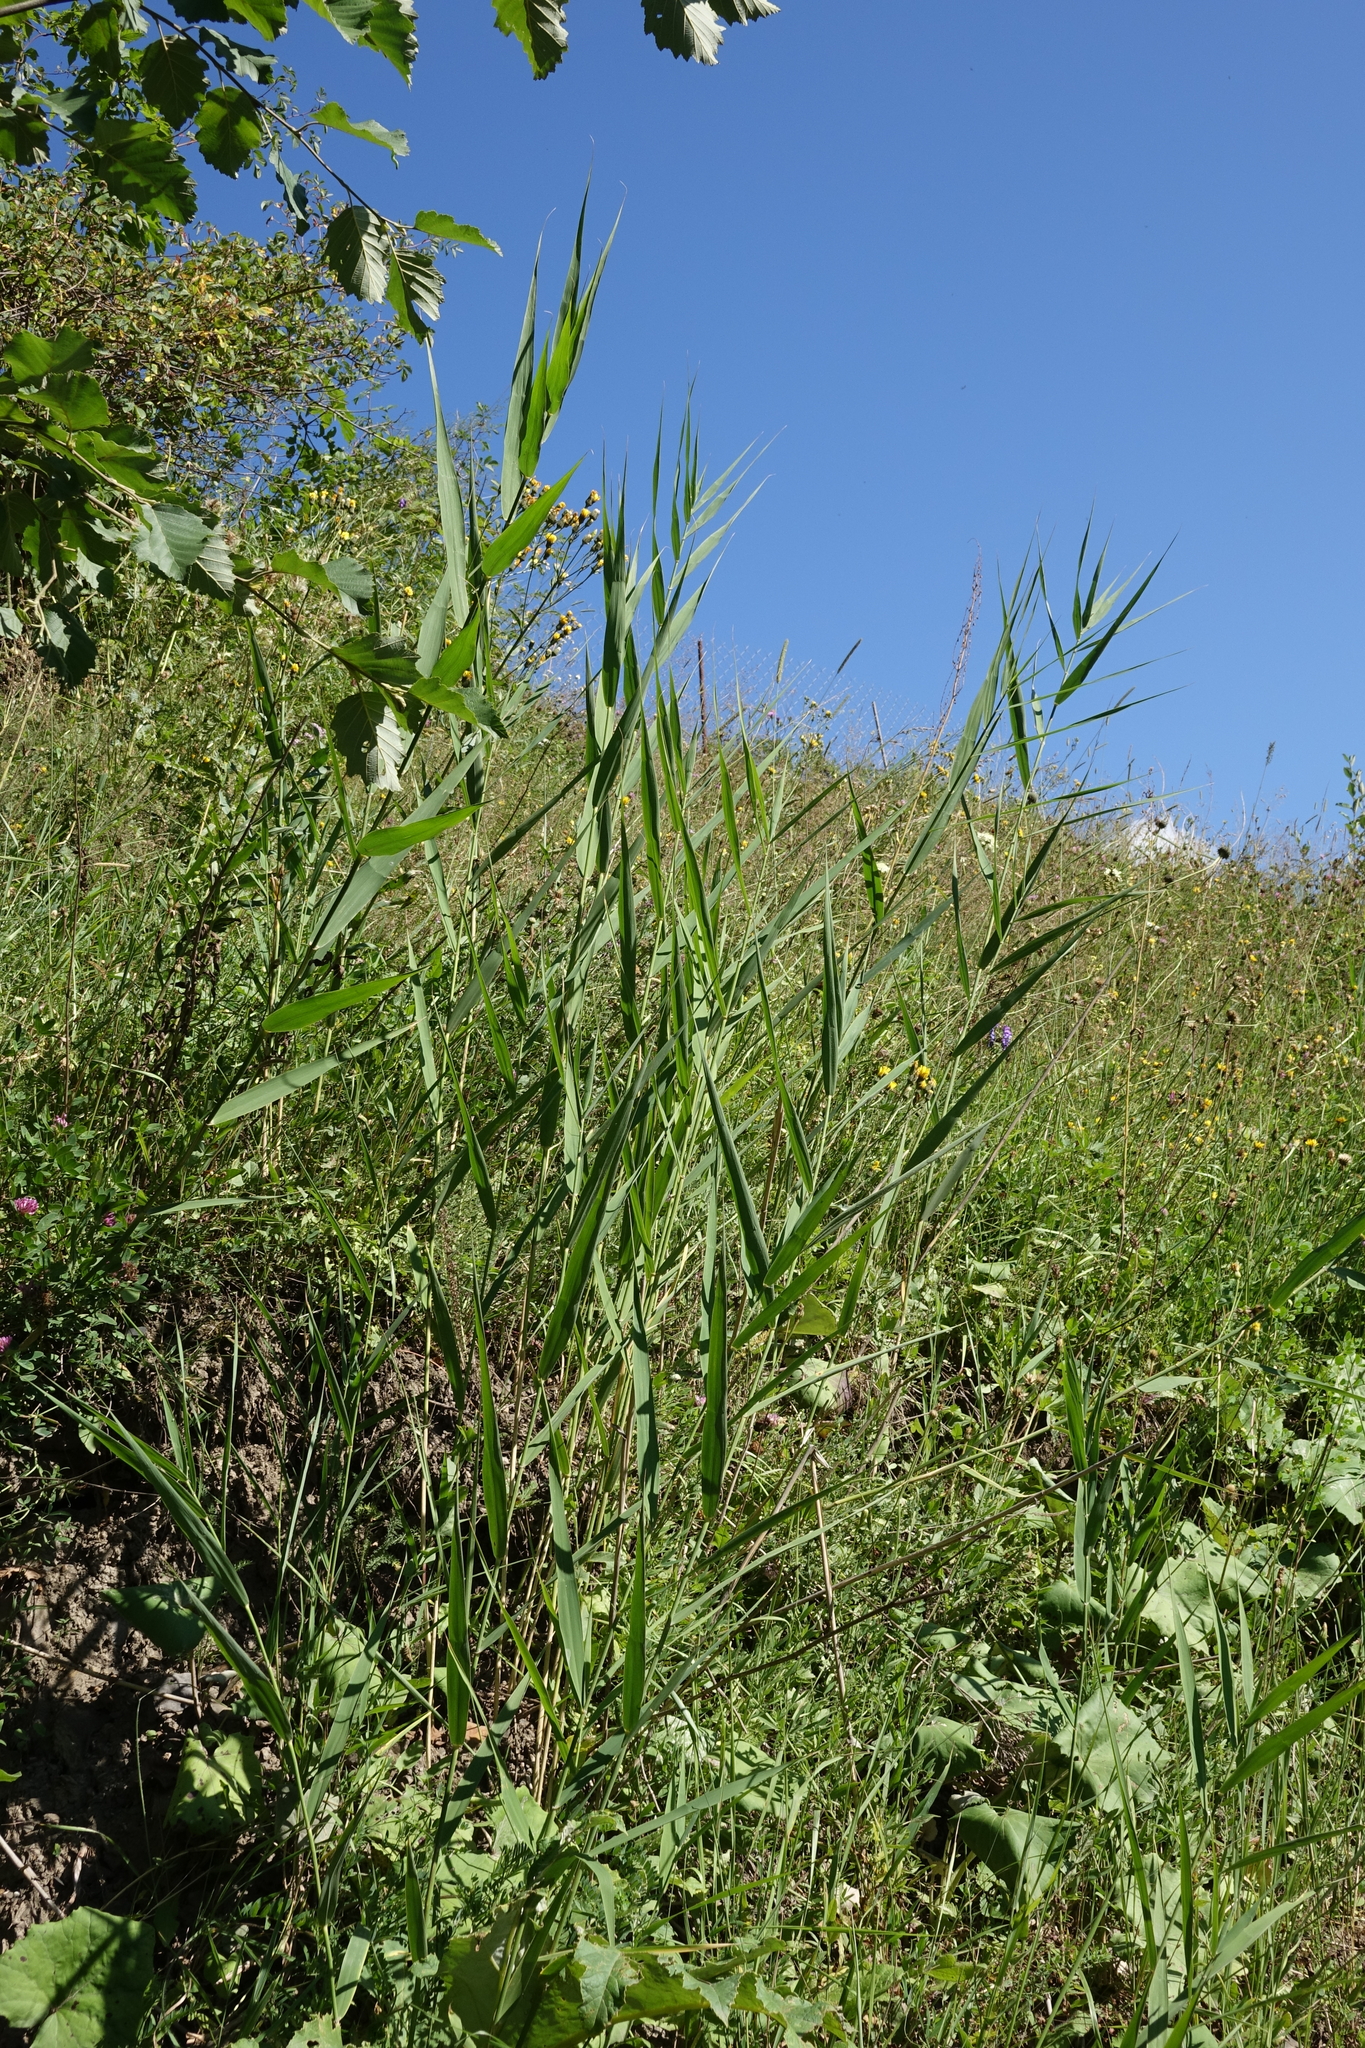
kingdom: Plantae
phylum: Tracheophyta
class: Liliopsida
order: Poales
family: Poaceae
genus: Phragmites
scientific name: Phragmites australis
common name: Common reed
